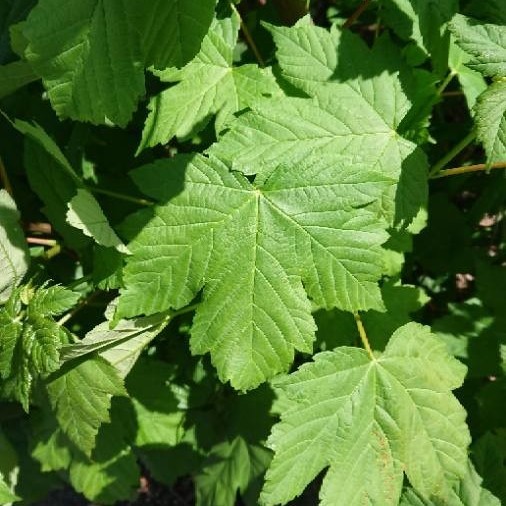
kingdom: Plantae
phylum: Tracheophyta
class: Magnoliopsida
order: Sapindales
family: Sapindaceae
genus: Acer
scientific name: Acer pseudoplatanus
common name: Sycamore
